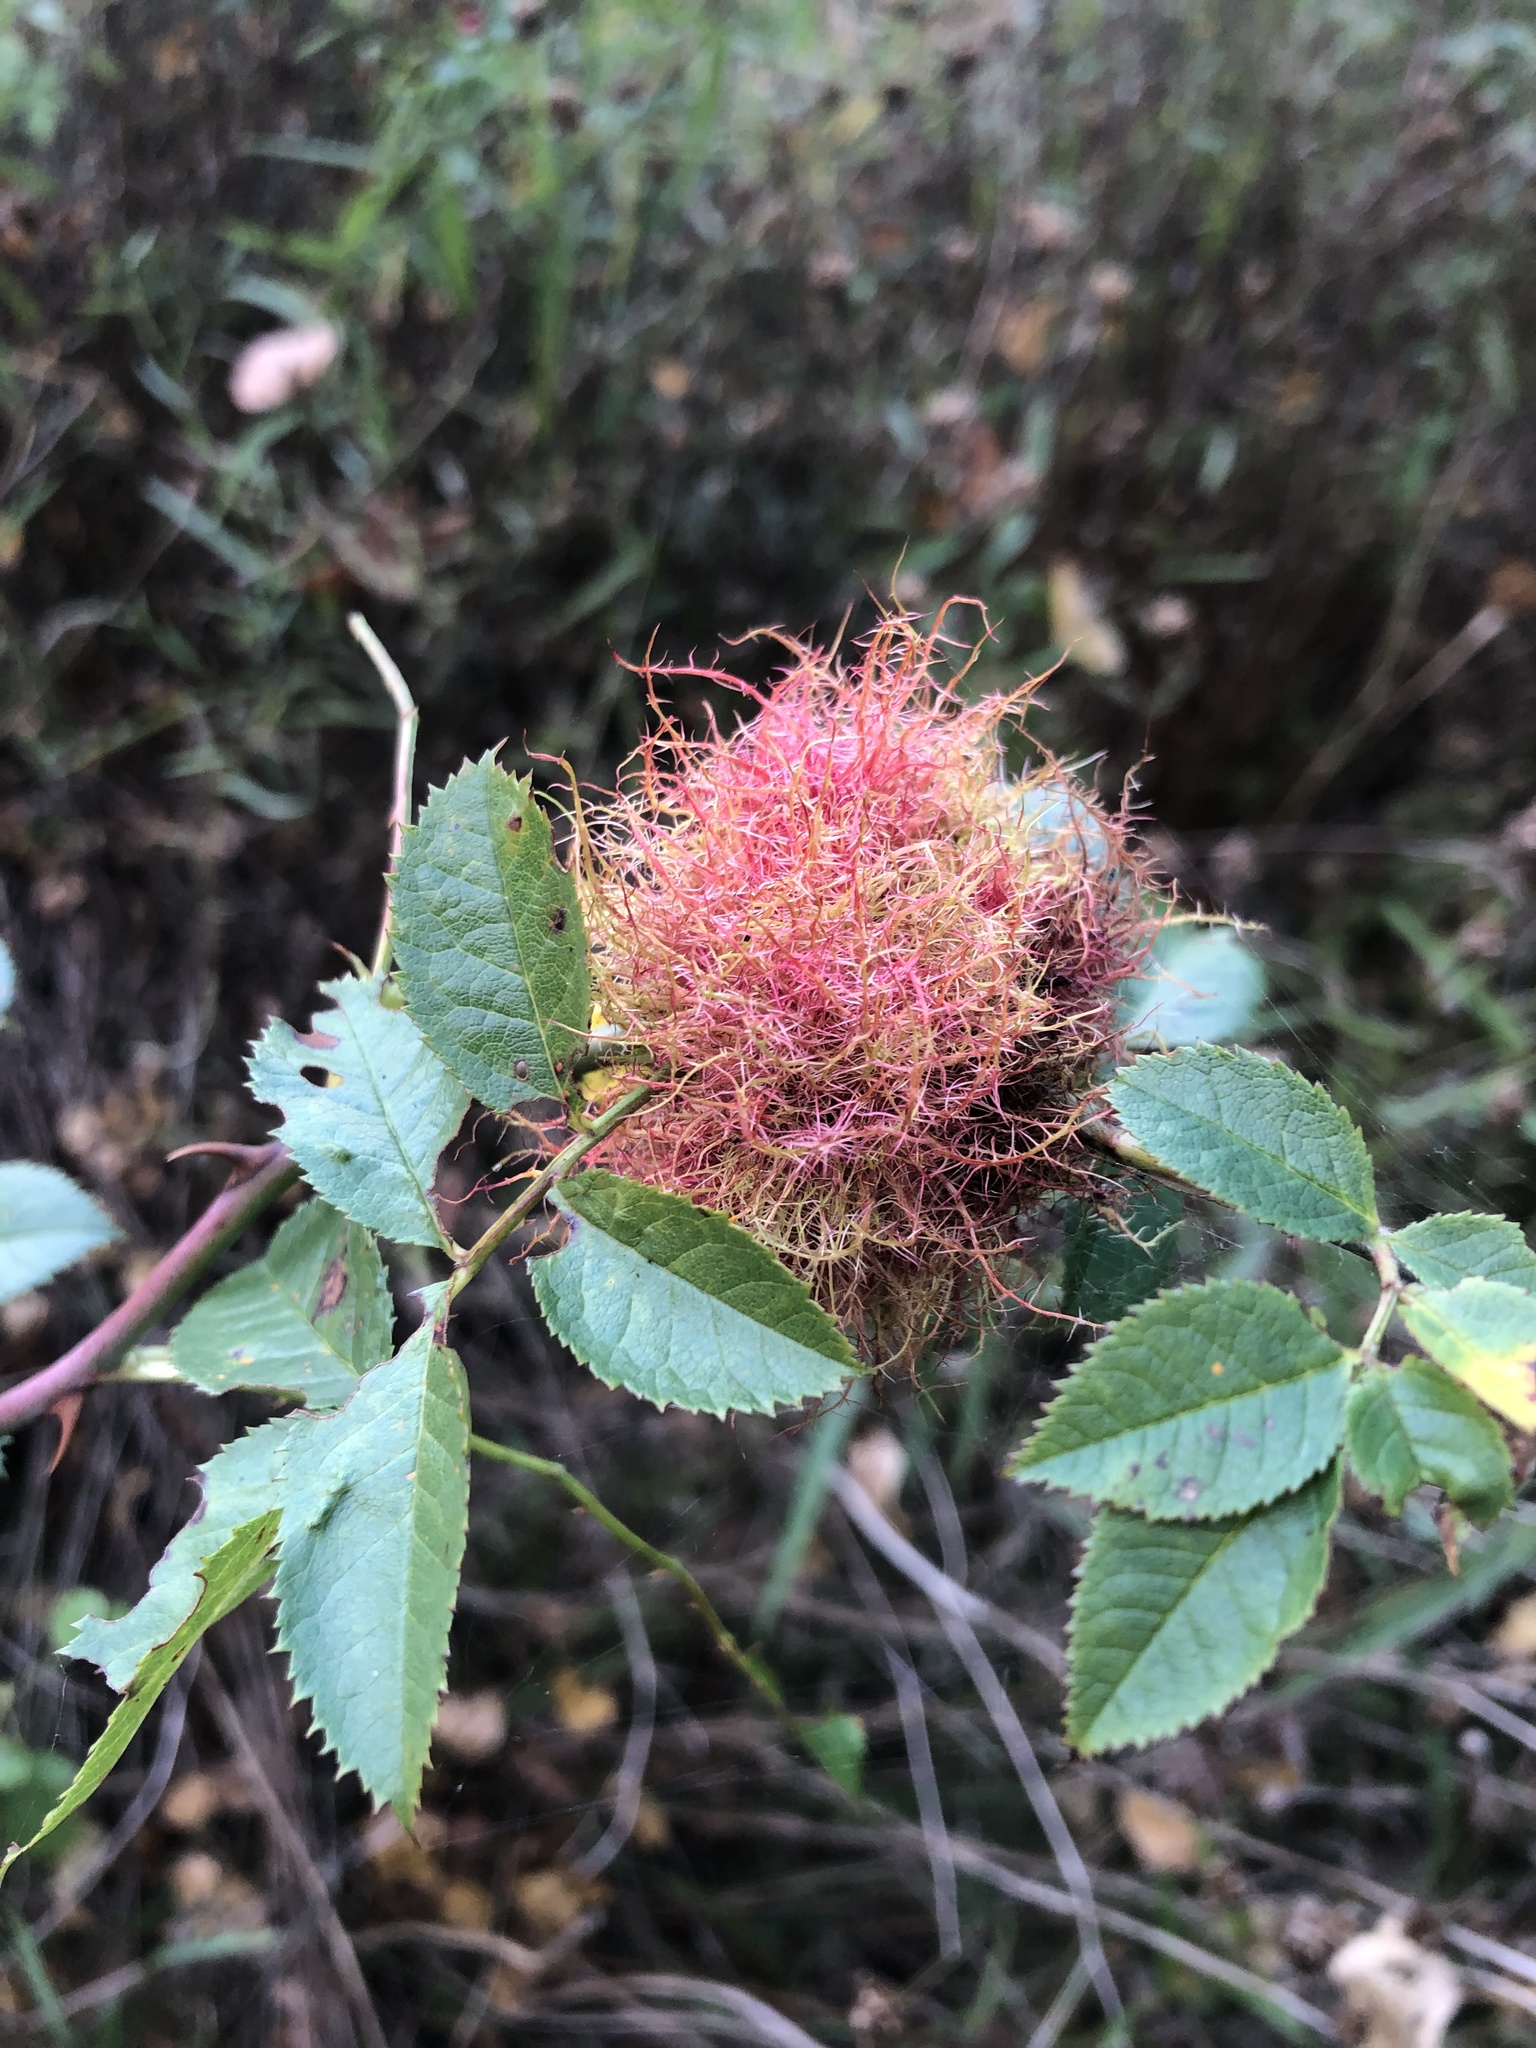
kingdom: Animalia
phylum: Arthropoda
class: Insecta
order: Hymenoptera
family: Cynipidae
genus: Diplolepis
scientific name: Diplolepis rosae
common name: Bedeguar gall
